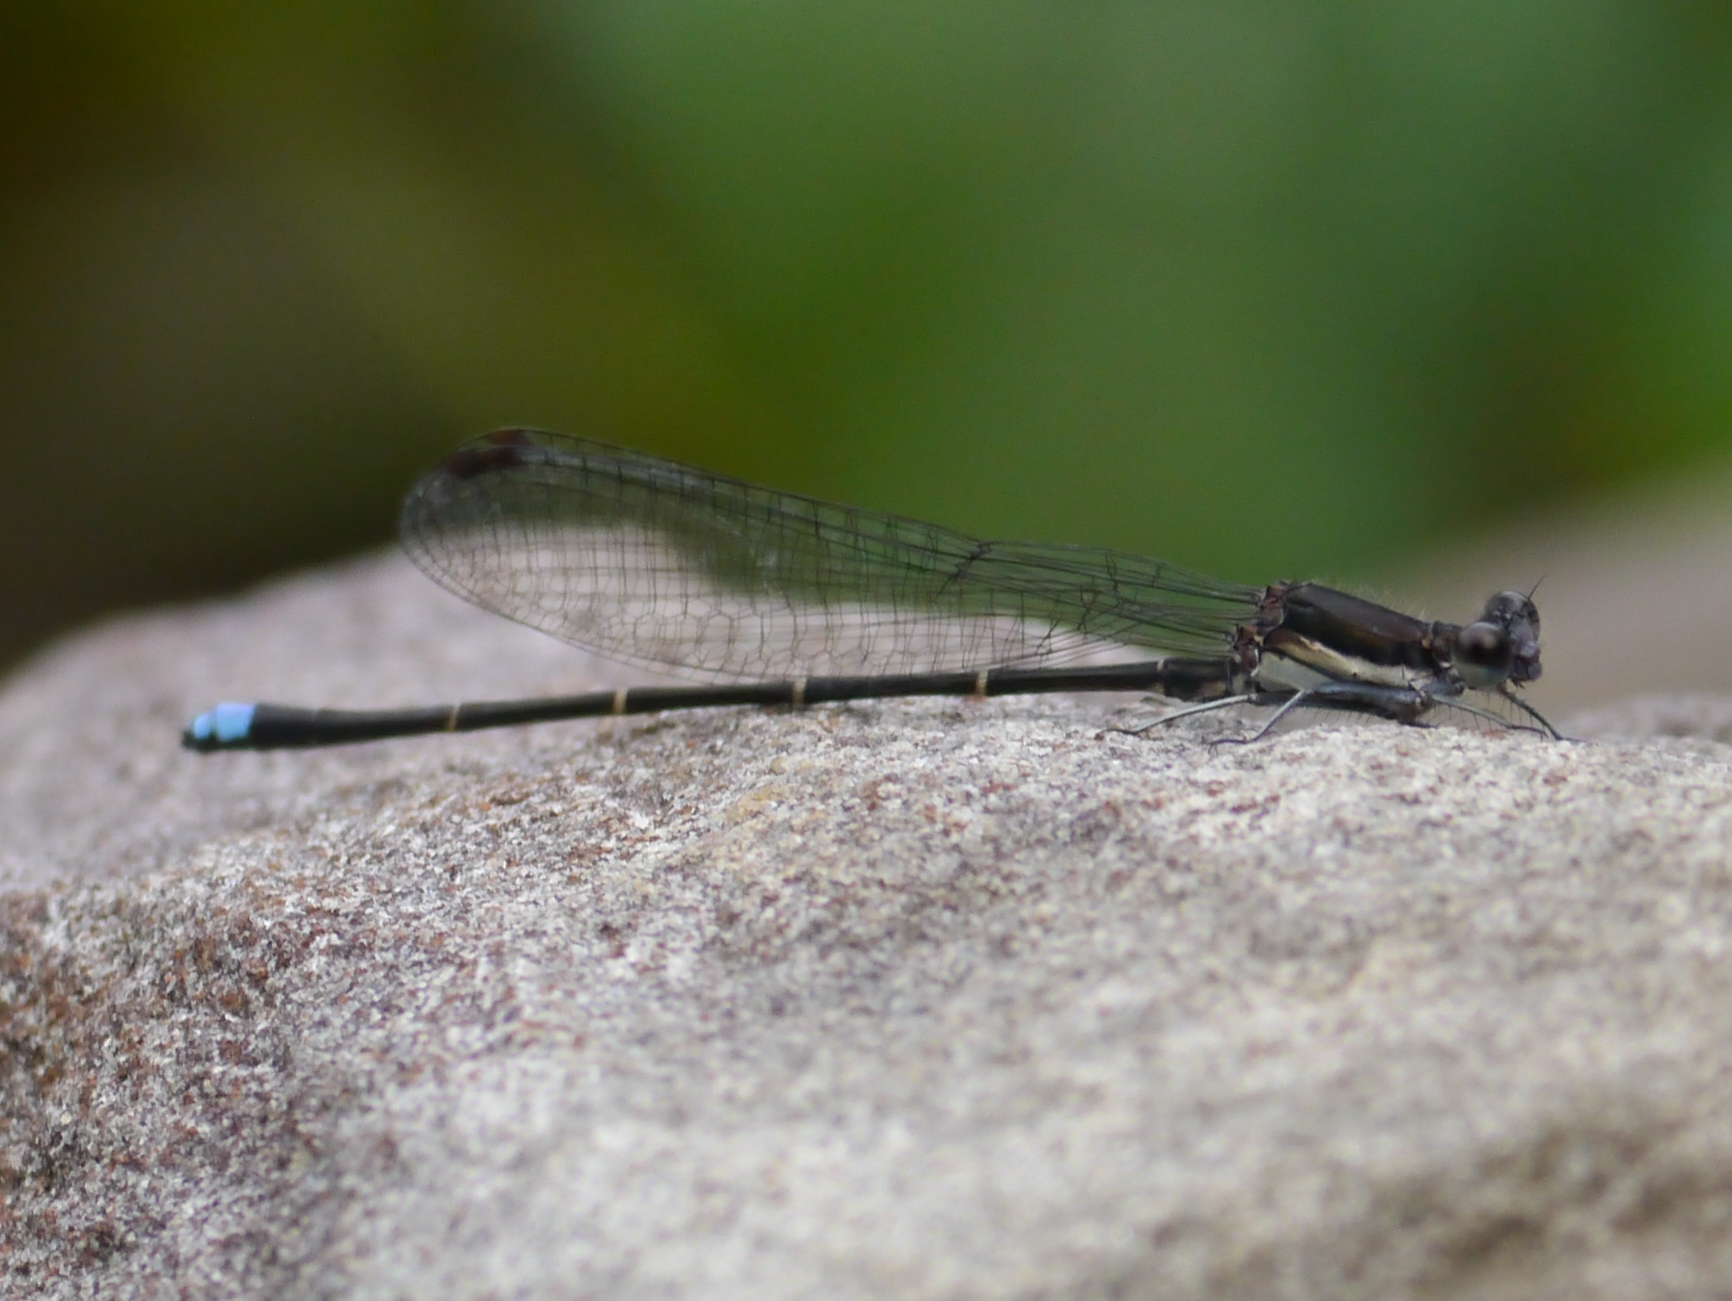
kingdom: Animalia
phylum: Arthropoda
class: Insecta
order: Odonata
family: Coenagrionidae
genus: Argia
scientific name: Argia tibialis
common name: Blue-tipped dancer
